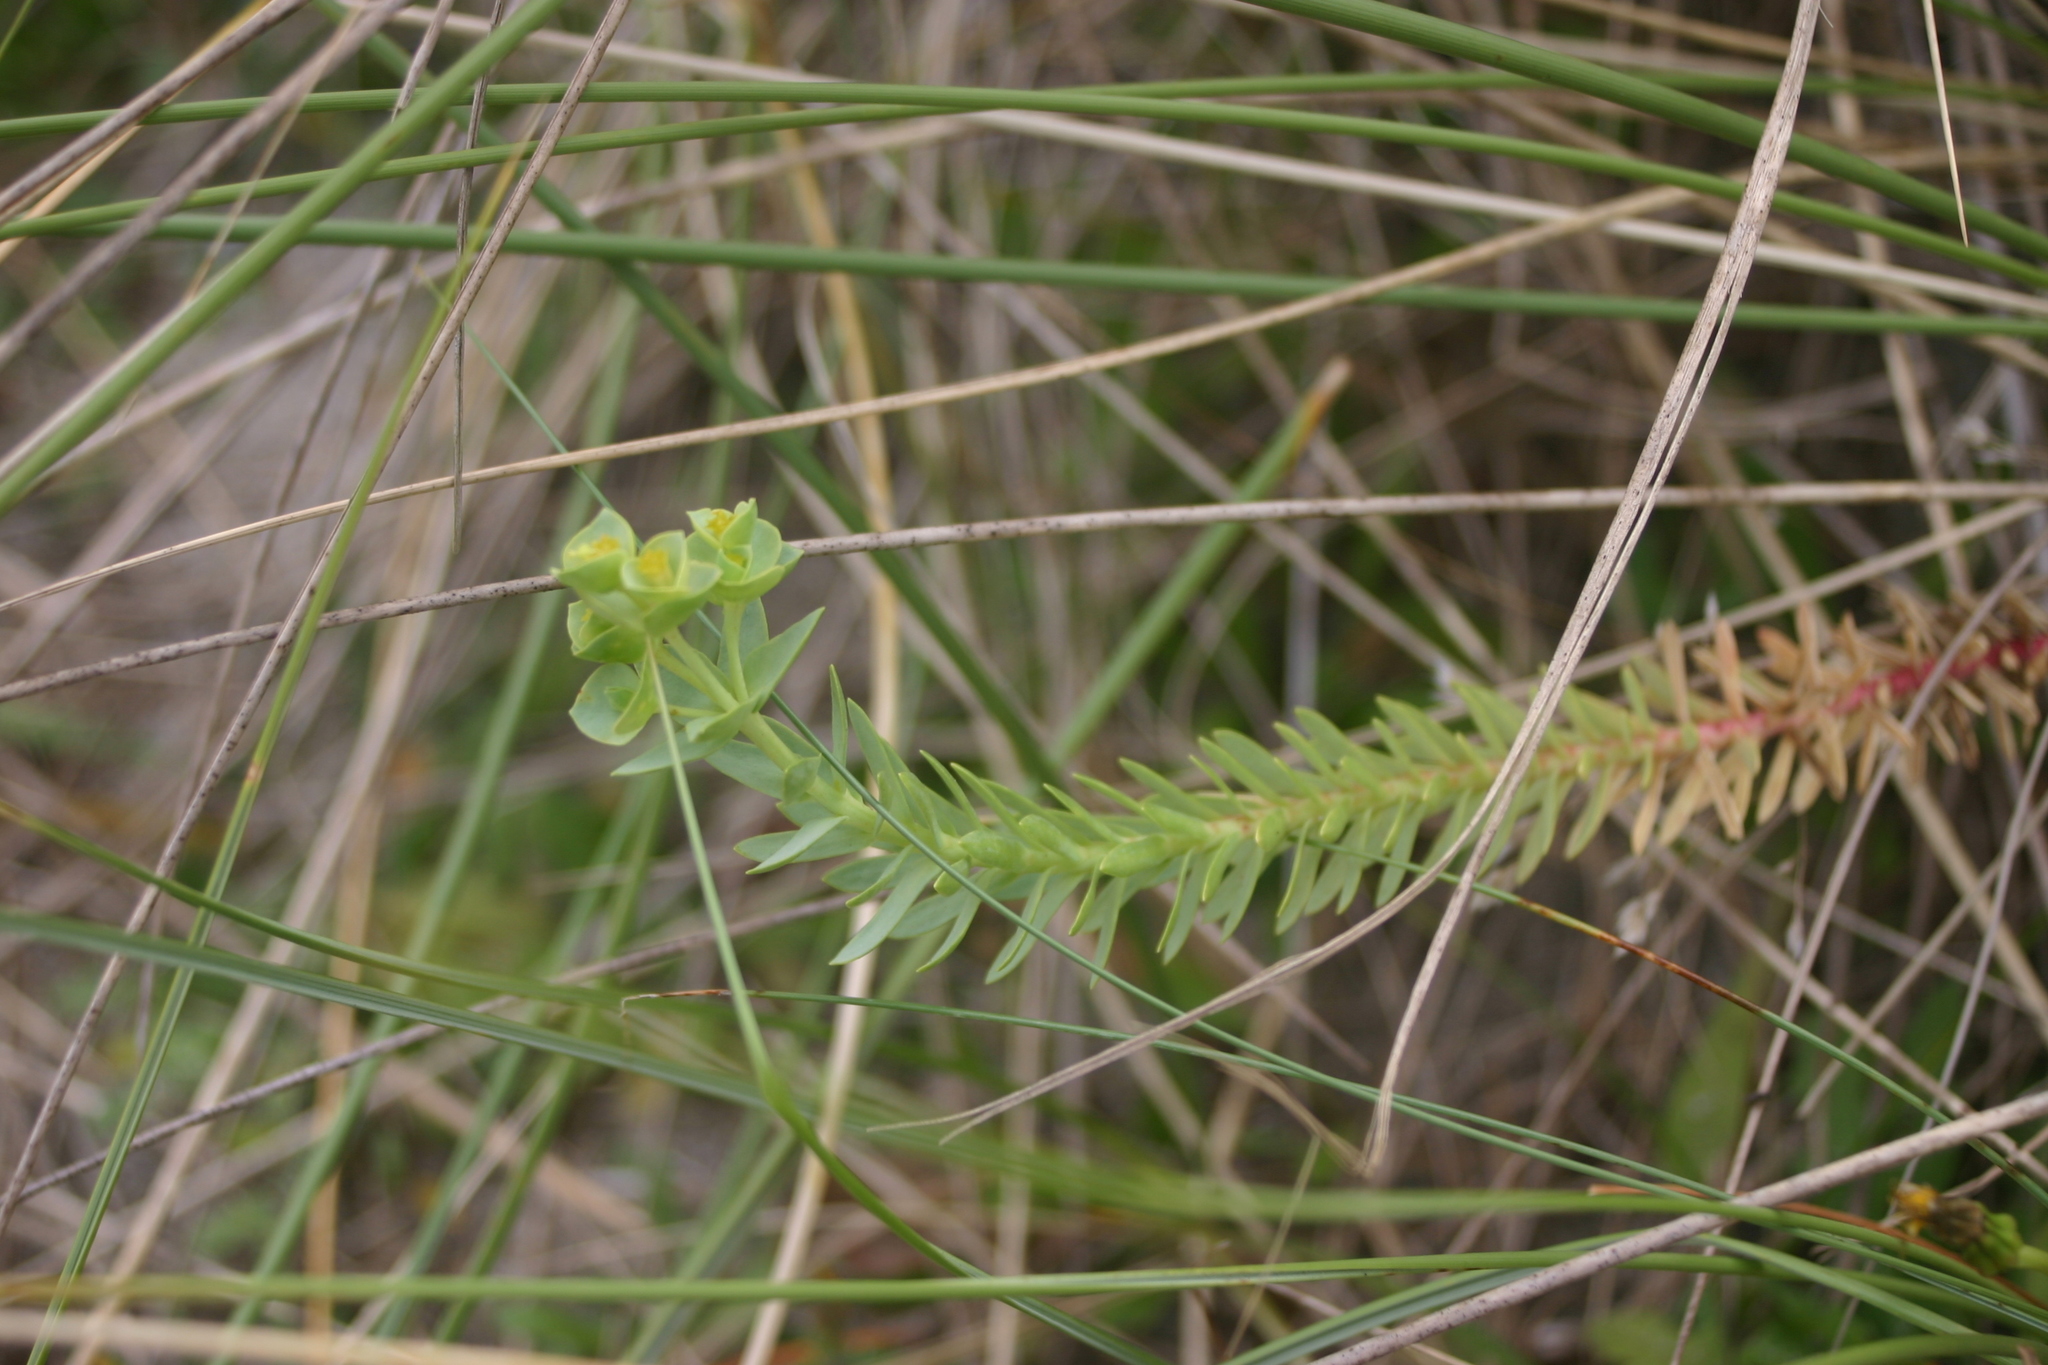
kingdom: Plantae
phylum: Tracheophyta
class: Magnoliopsida
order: Malpighiales
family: Euphorbiaceae
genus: Euphorbia
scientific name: Euphorbia paralias
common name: Sea spurge
